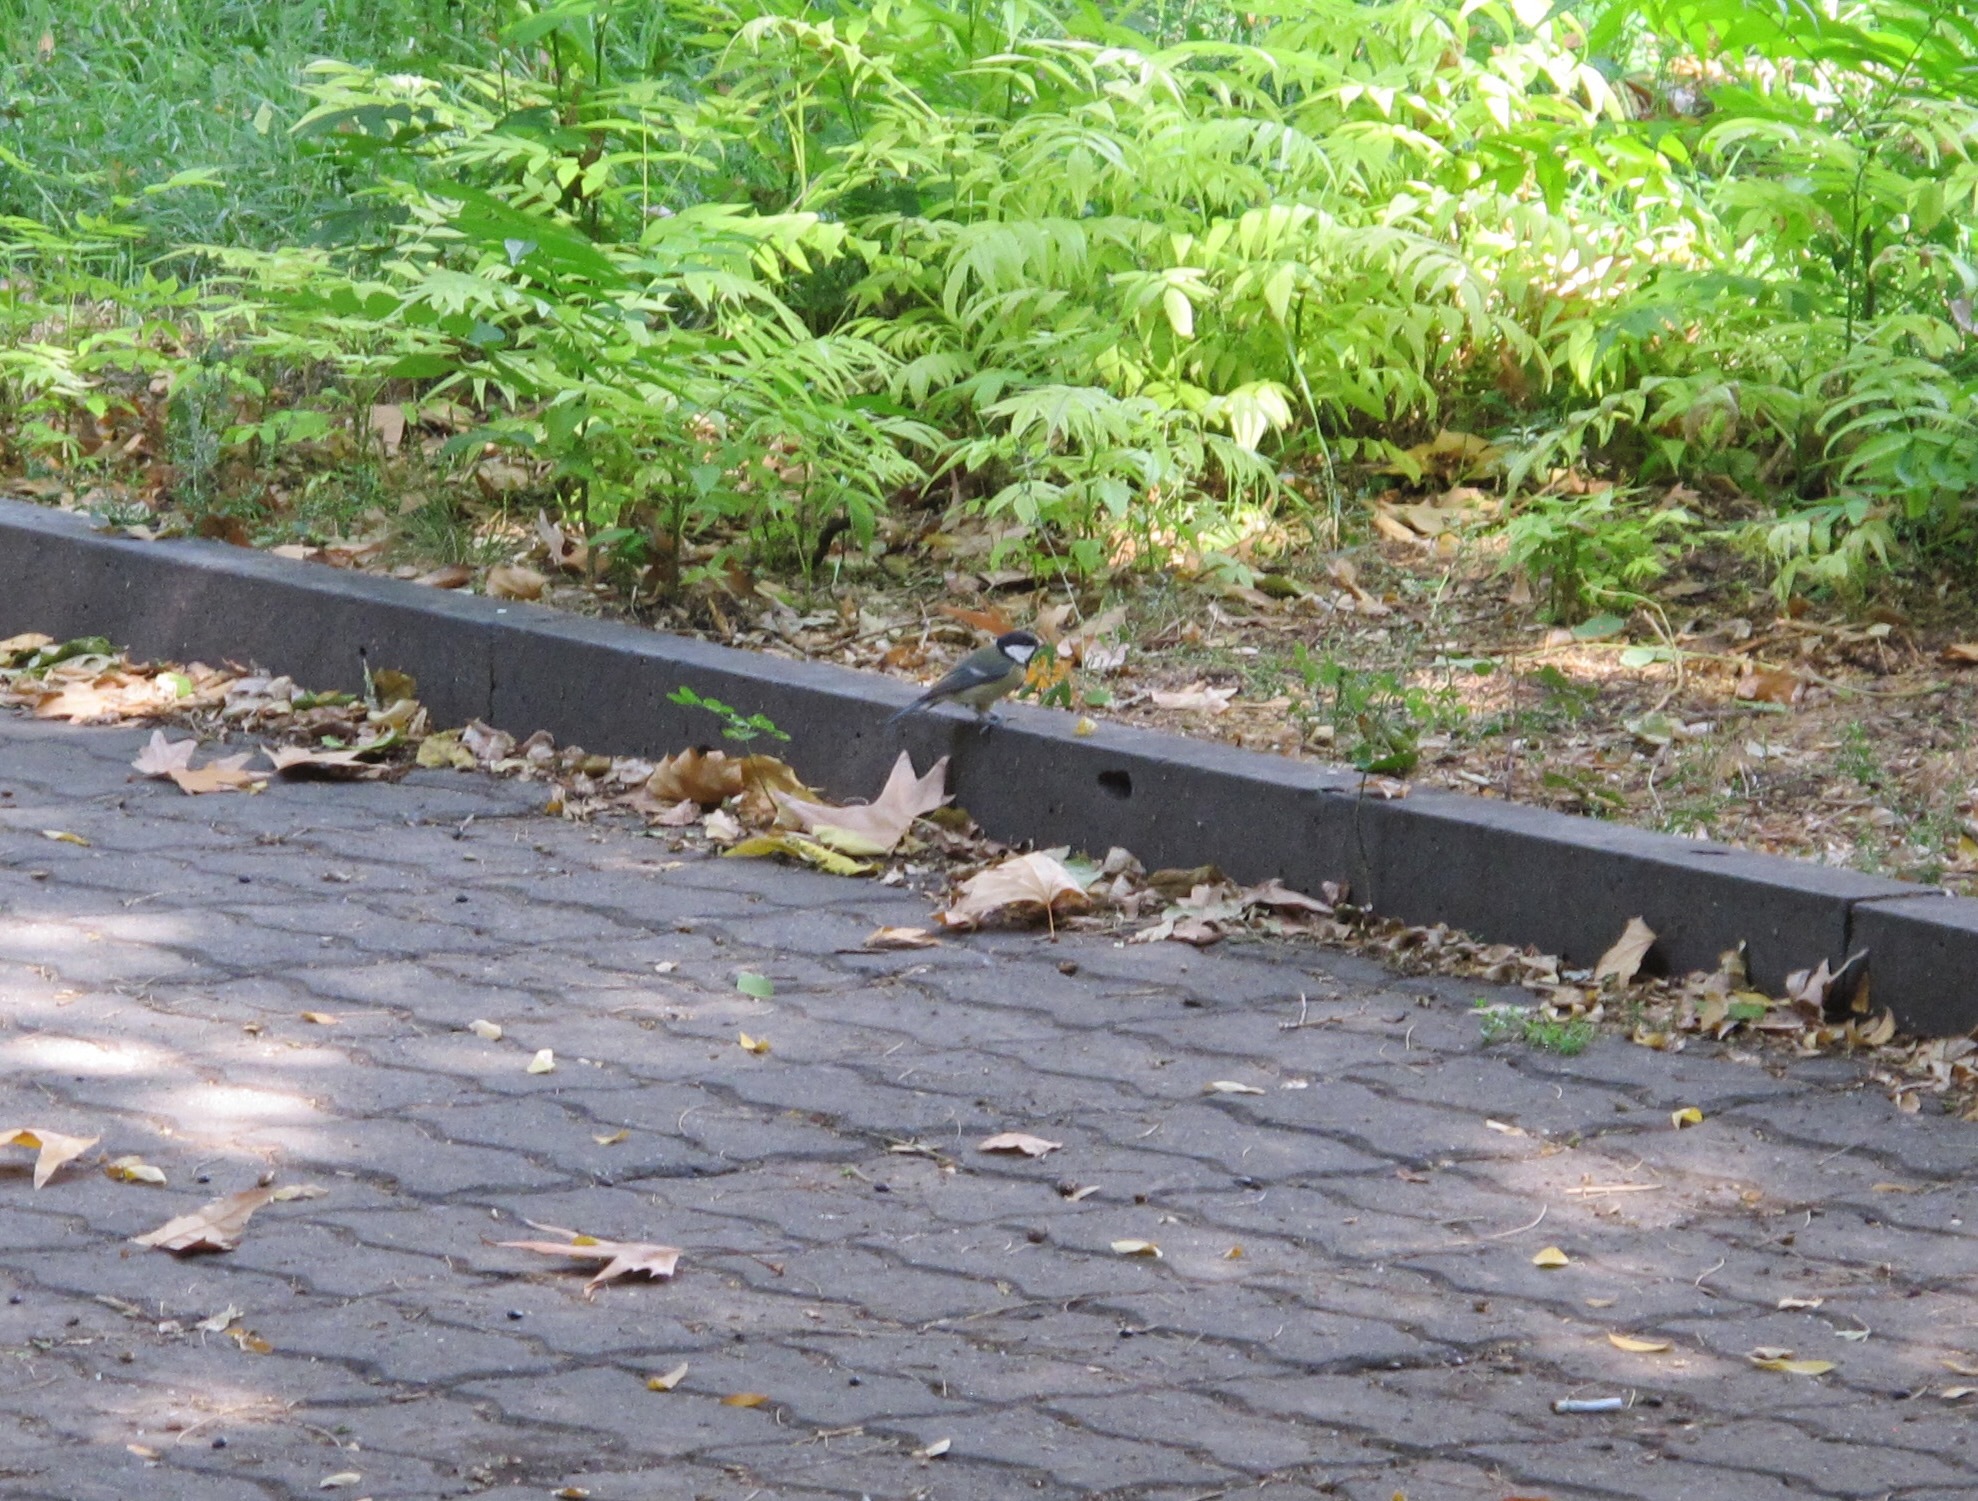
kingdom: Animalia
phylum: Chordata
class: Aves
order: Passeriformes
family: Paridae
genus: Parus
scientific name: Parus major
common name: Great tit
